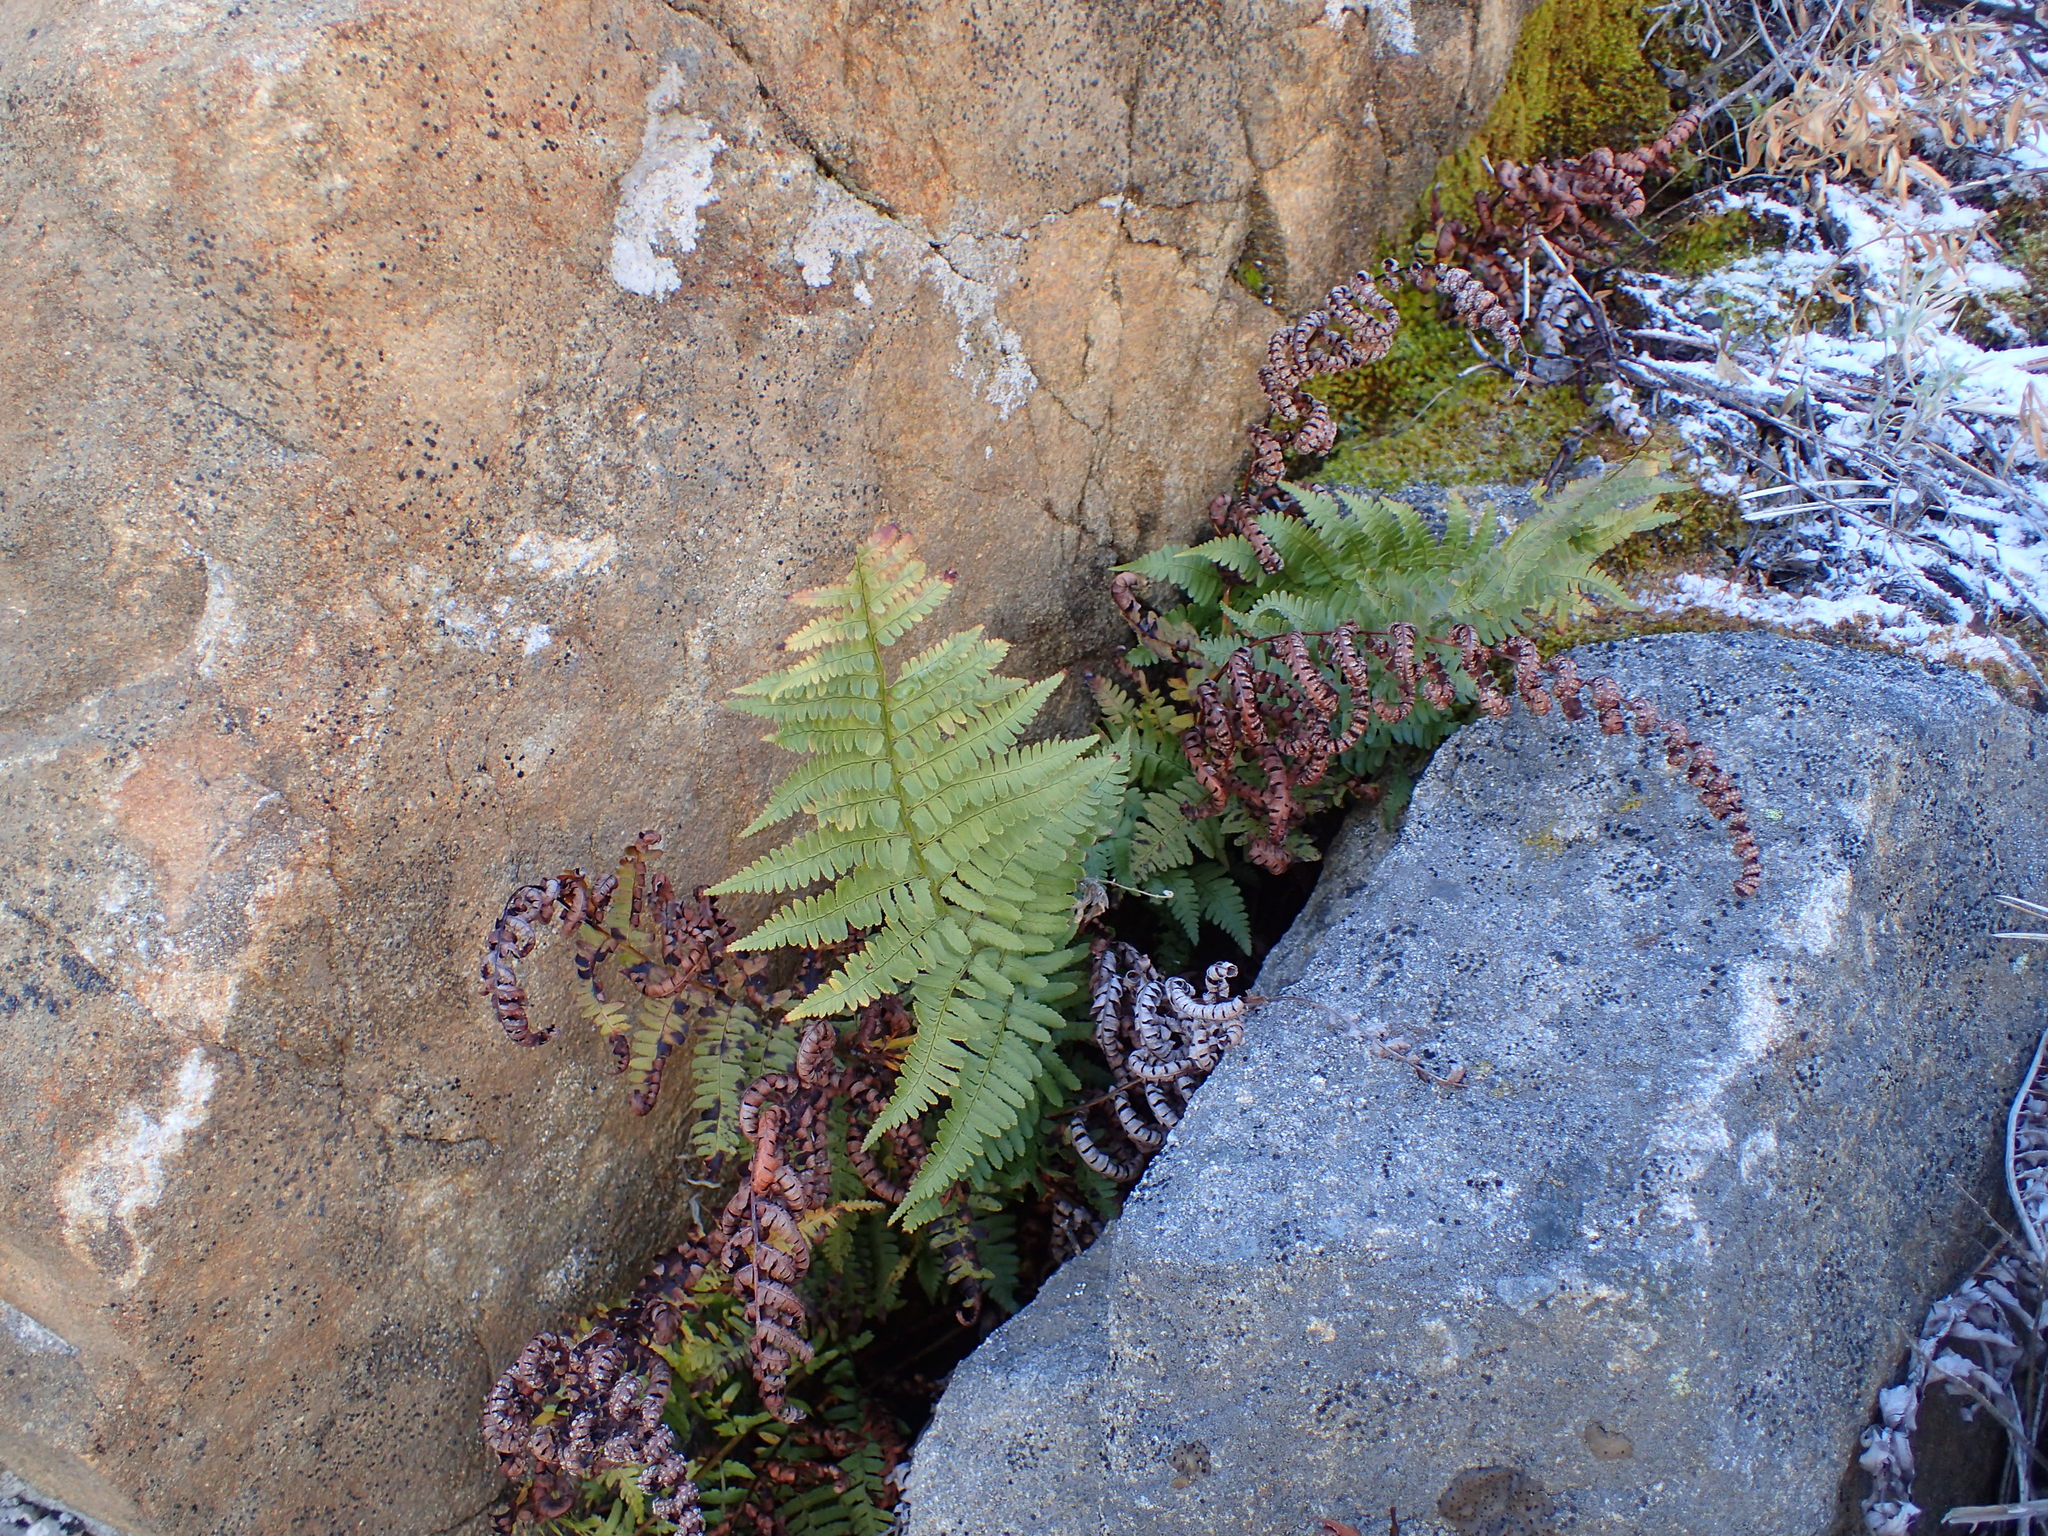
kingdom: Plantae
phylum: Tracheophyta
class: Polypodiopsida
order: Polypodiales
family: Dryopteridaceae
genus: Dryopteris
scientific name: Dryopteris arguta
